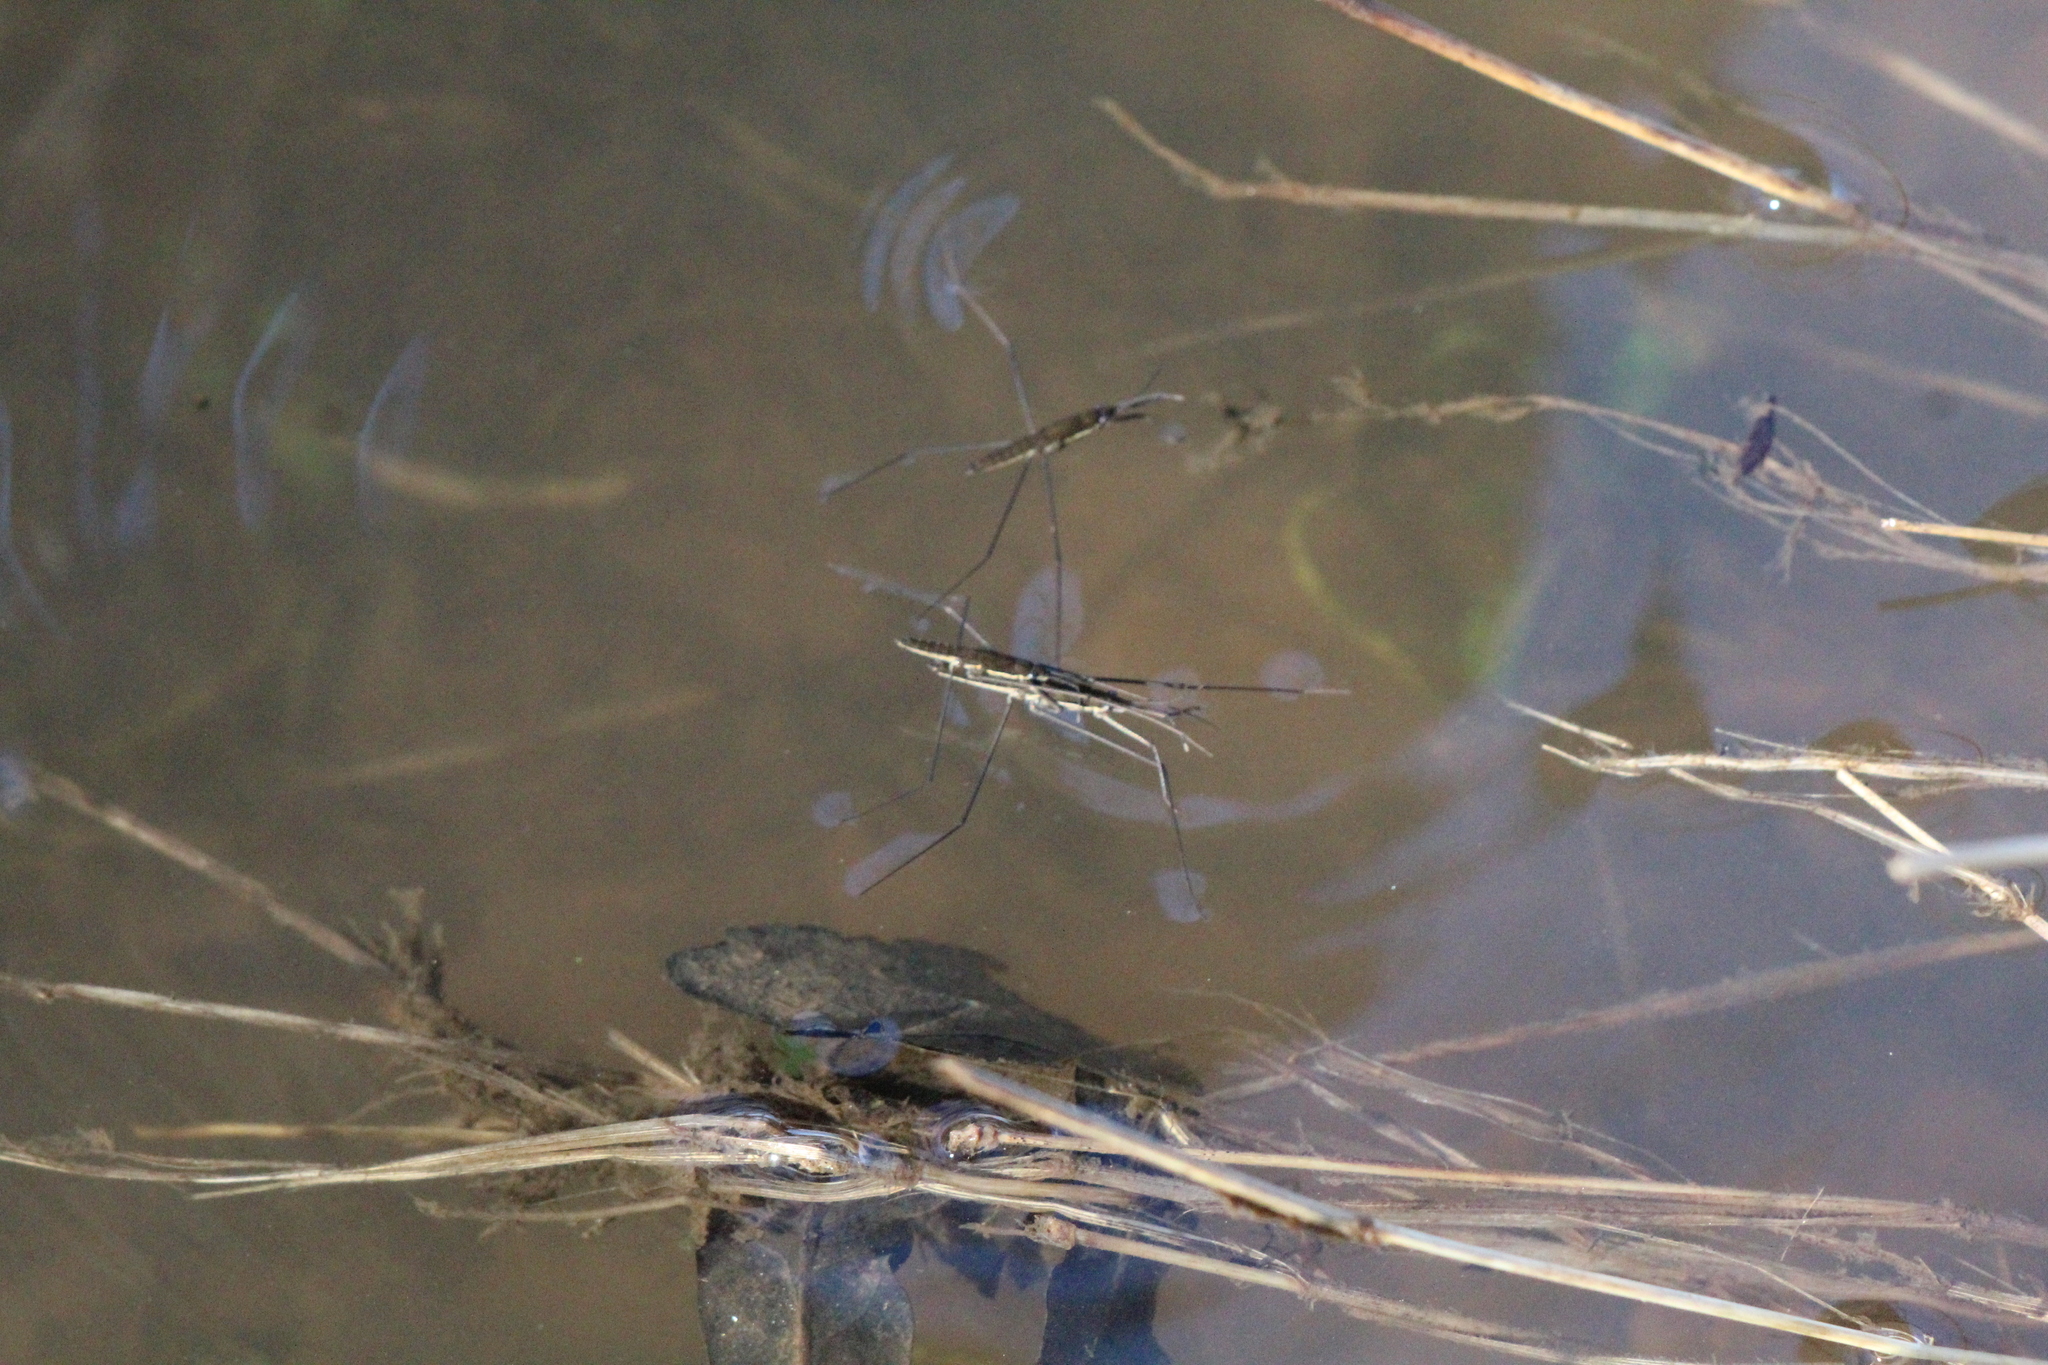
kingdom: Animalia
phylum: Arthropoda
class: Insecta
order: Hemiptera
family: Gerridae
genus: Aquarius
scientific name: Aquarius najas
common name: River skater
